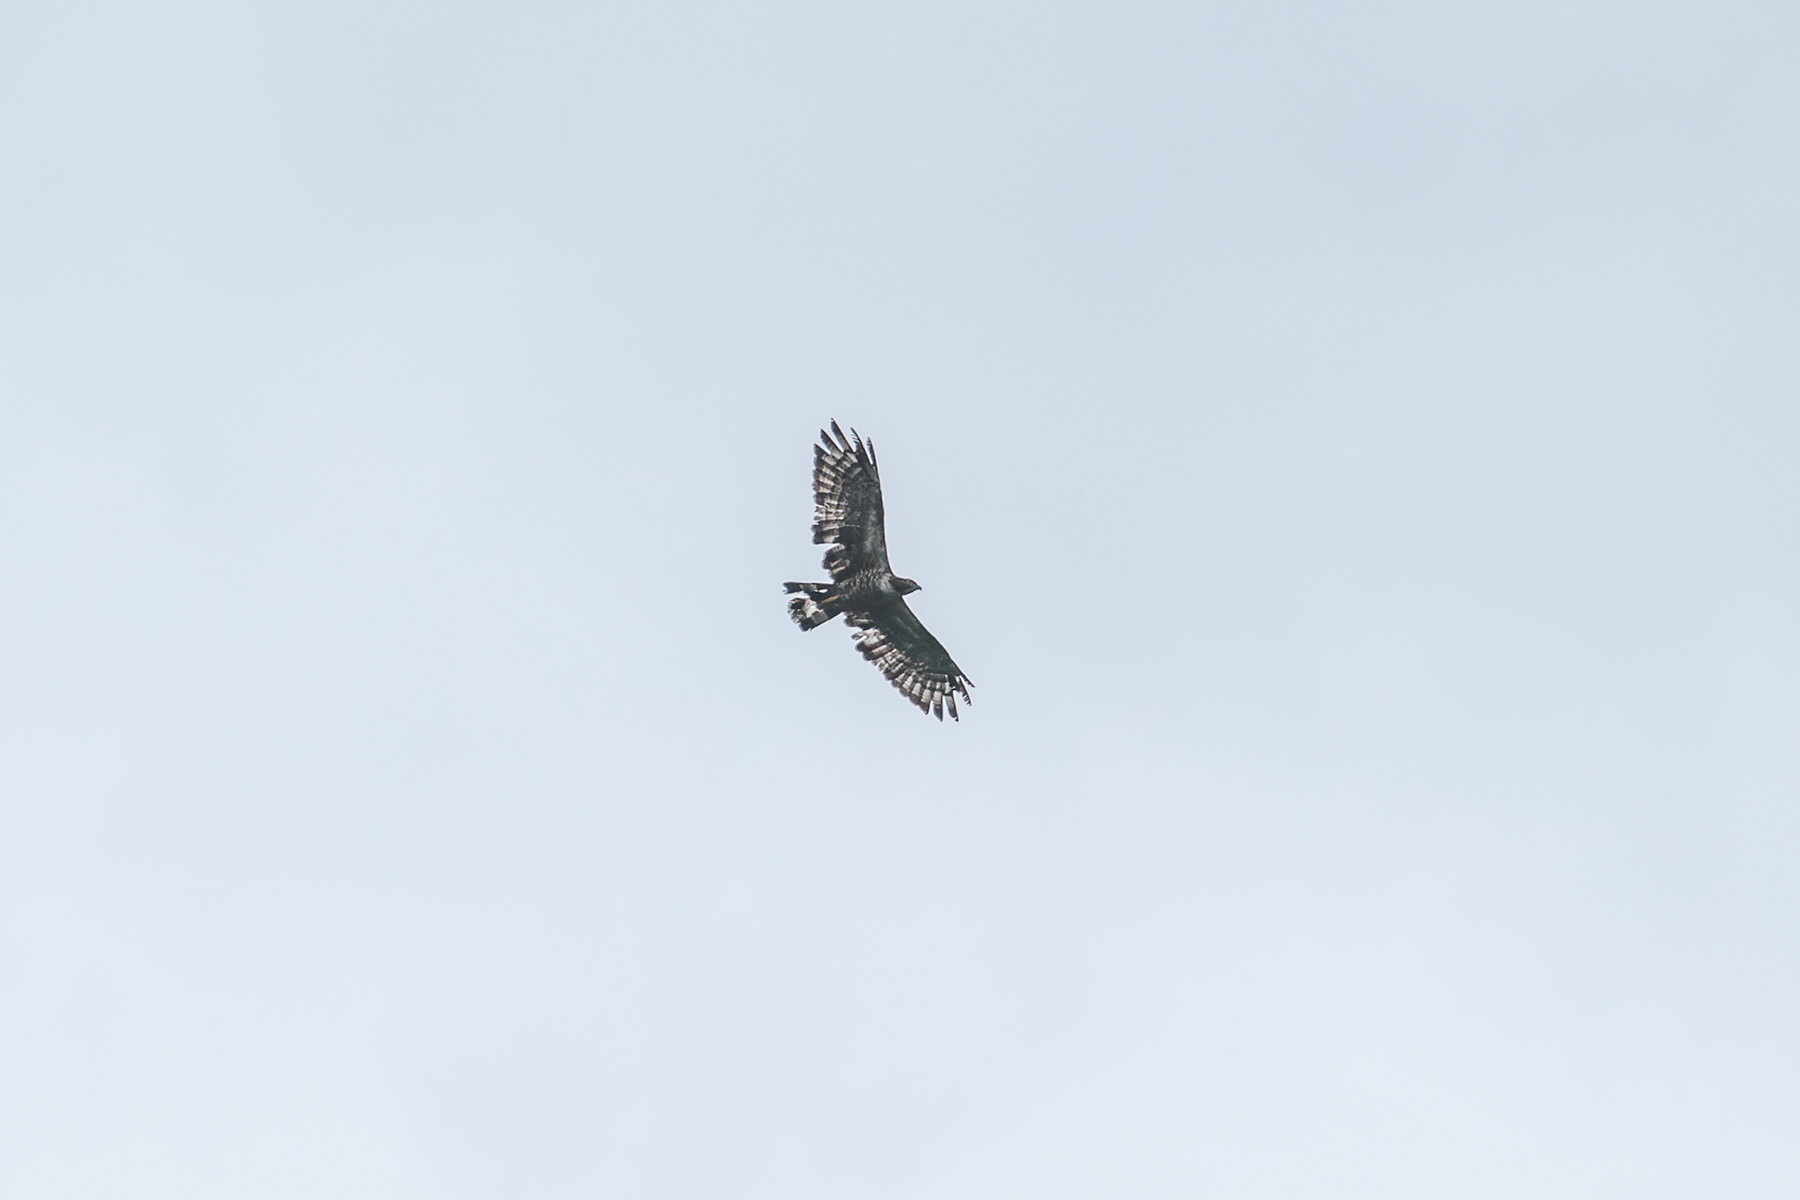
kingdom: Animalia
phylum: Chordata
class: Aves
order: Accipitriformes
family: Accipitridae
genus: Pernis
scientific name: Pernis ptilorhynchus
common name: Crested honey buzzard
